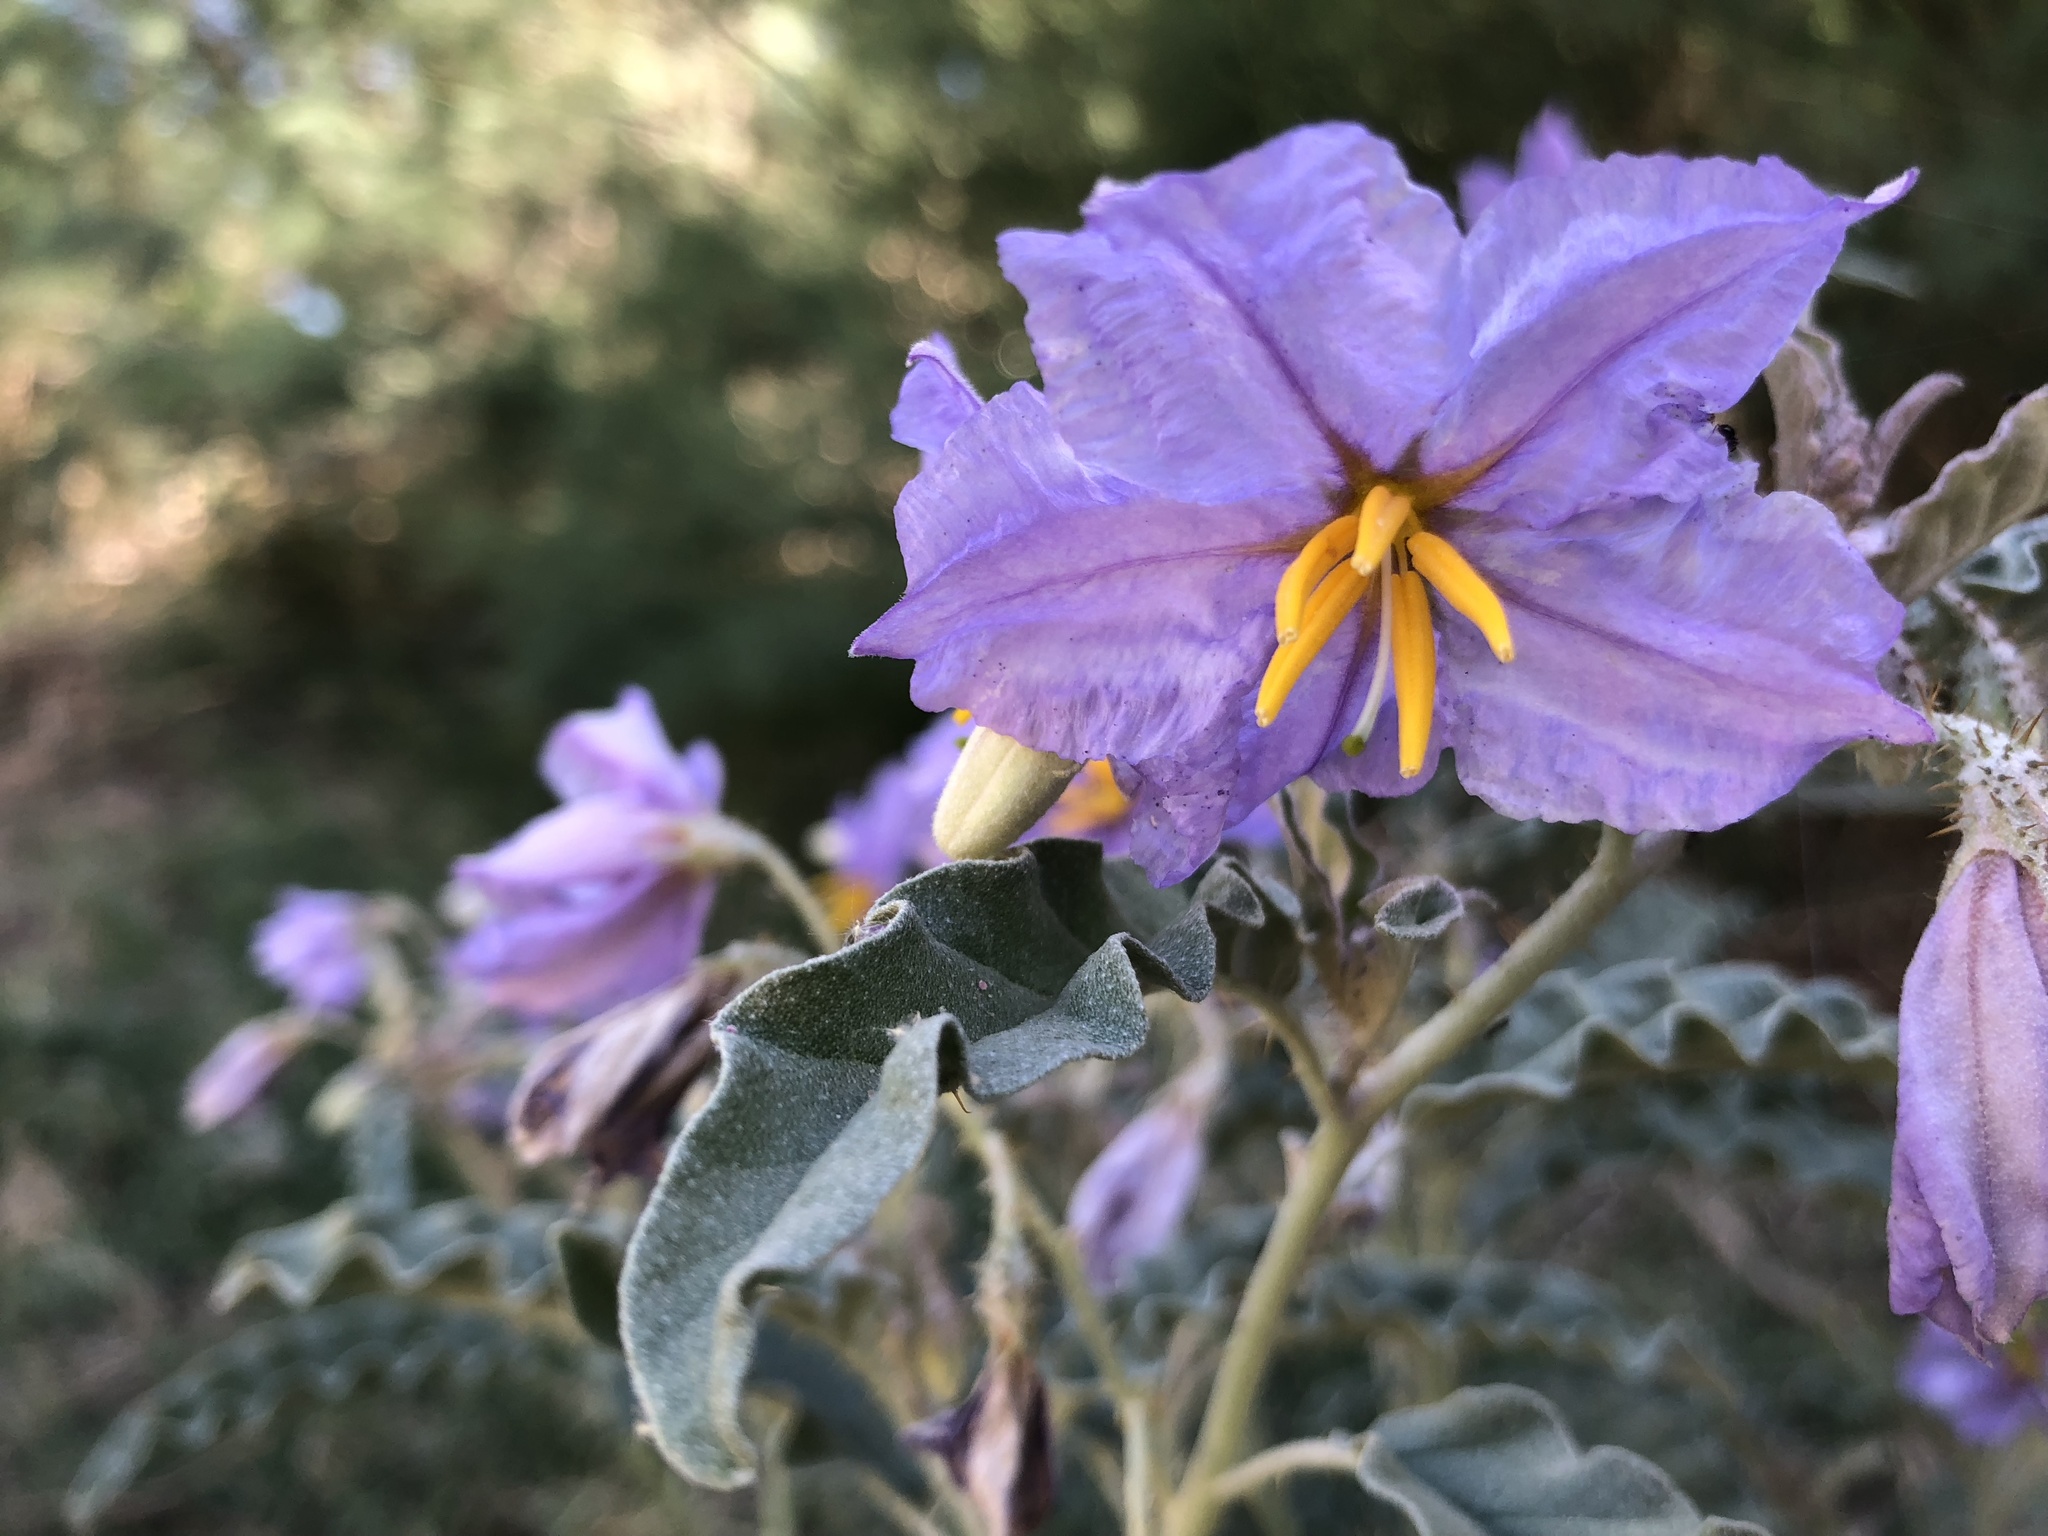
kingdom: Plantae
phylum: Tracheophyta
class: Magnoliopsida
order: Solanales
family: Solanaceae
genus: Solanum
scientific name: Solanum elaeagnifolium
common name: Silverleaf nightshade
